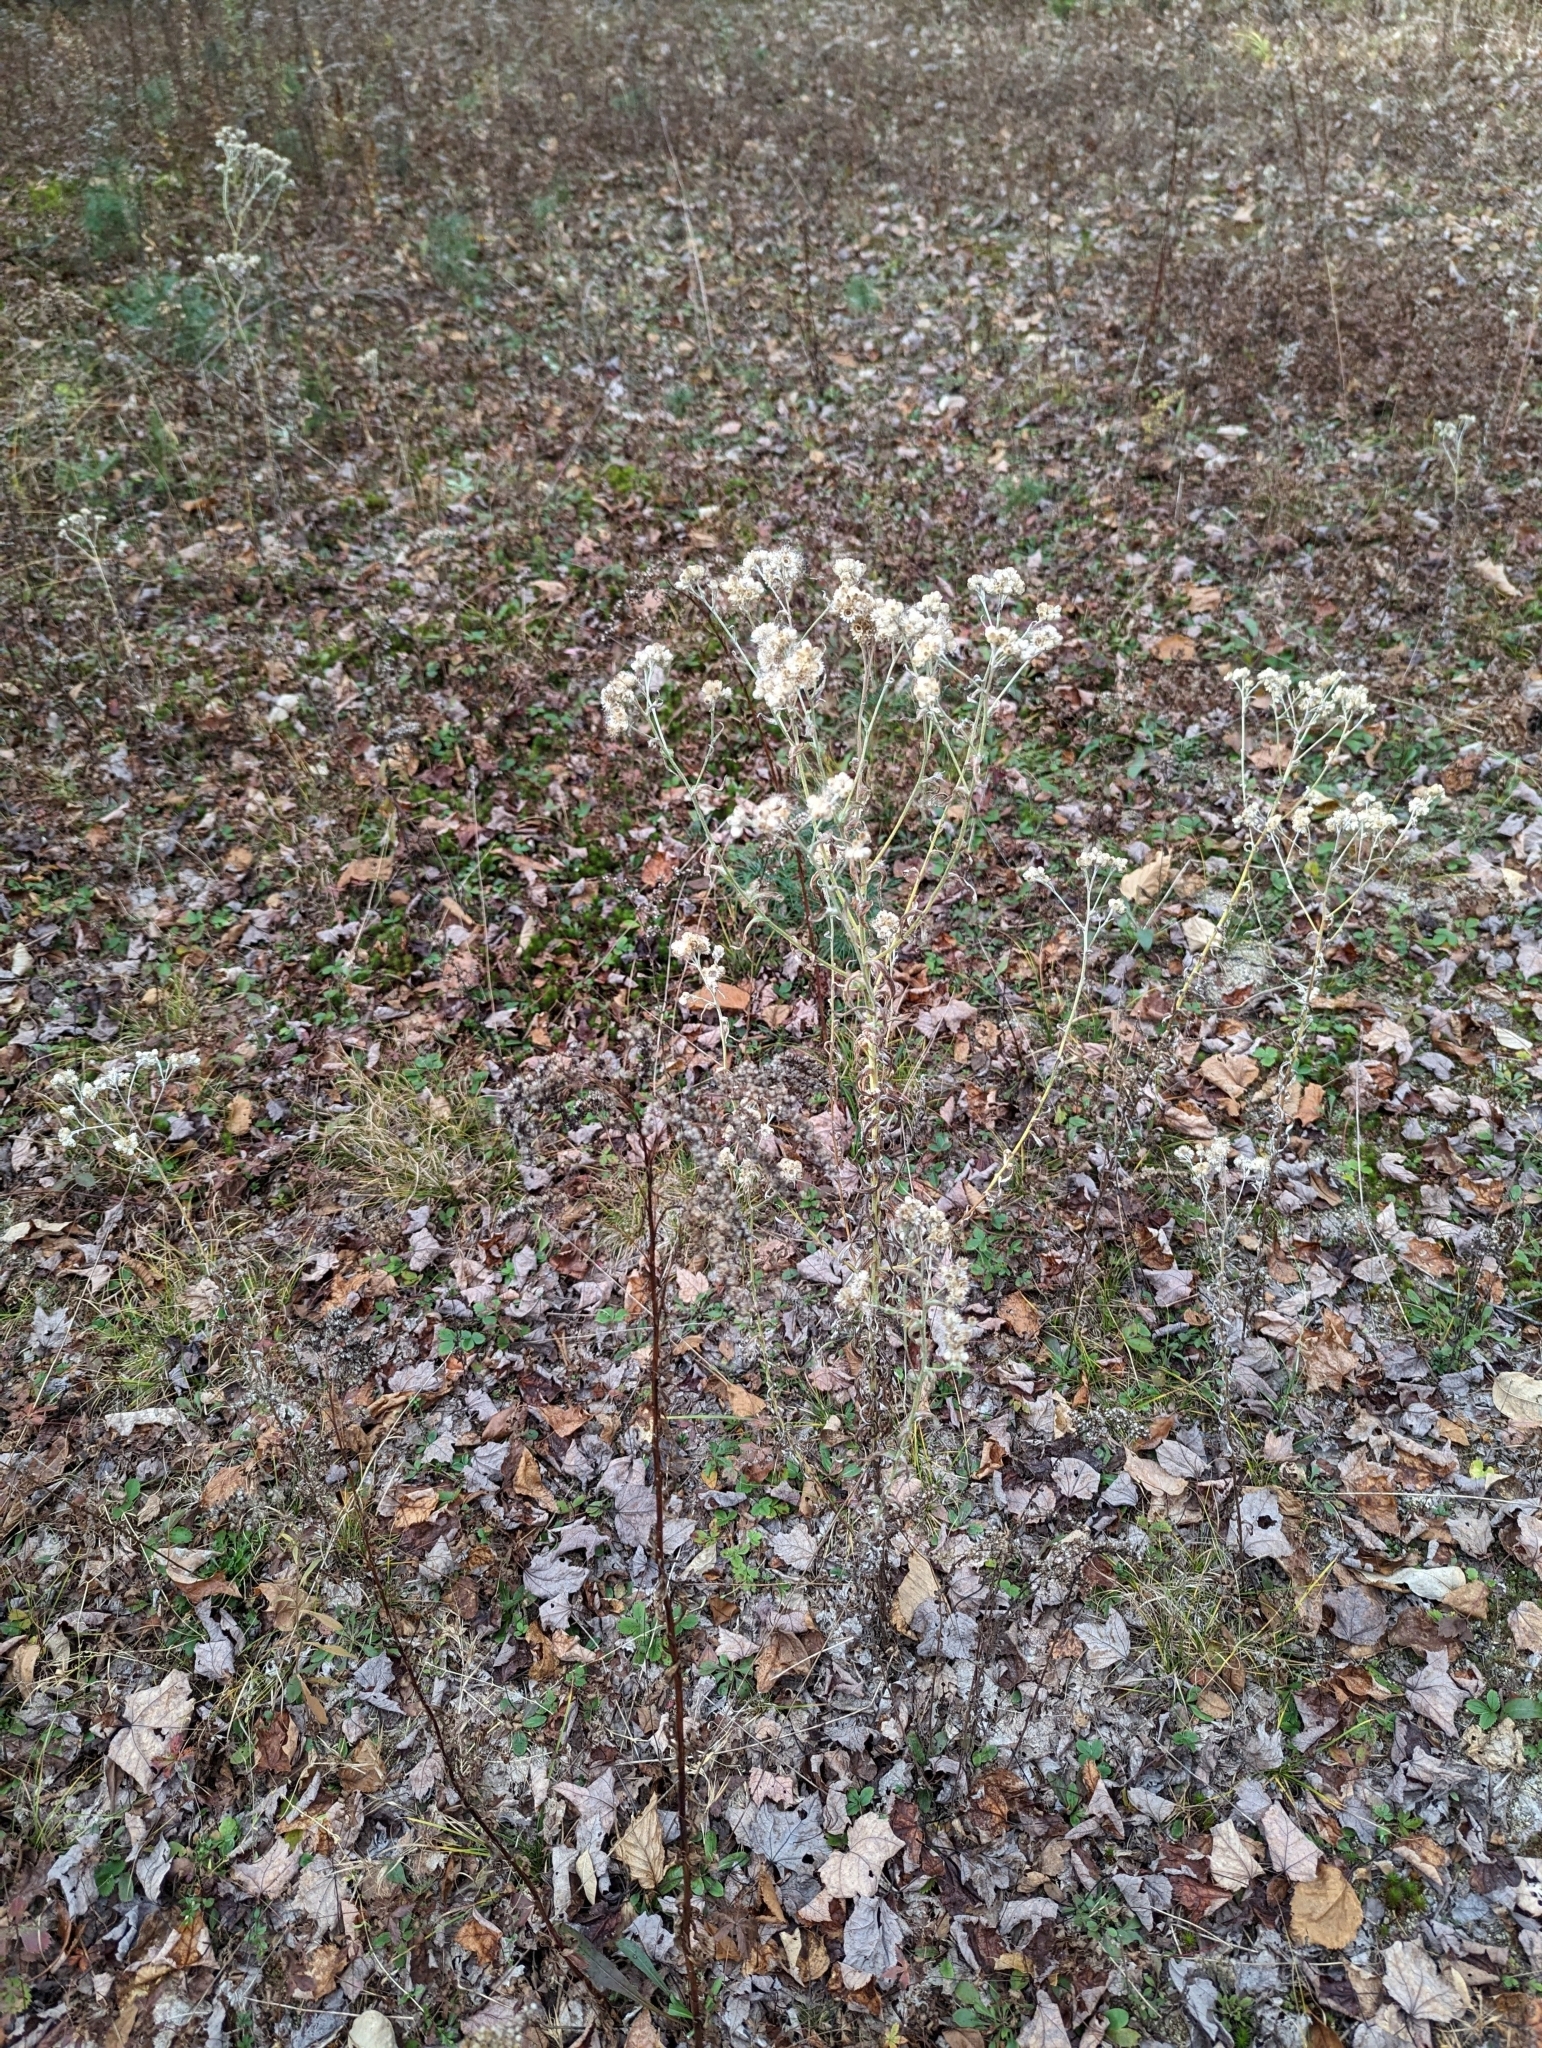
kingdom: Plantae
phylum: Tracheophyta
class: Magnoliopsida
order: Asterales
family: Asteraceae
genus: Anaphalis
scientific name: Anaphalis margaritacea
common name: Pearly everlasting
